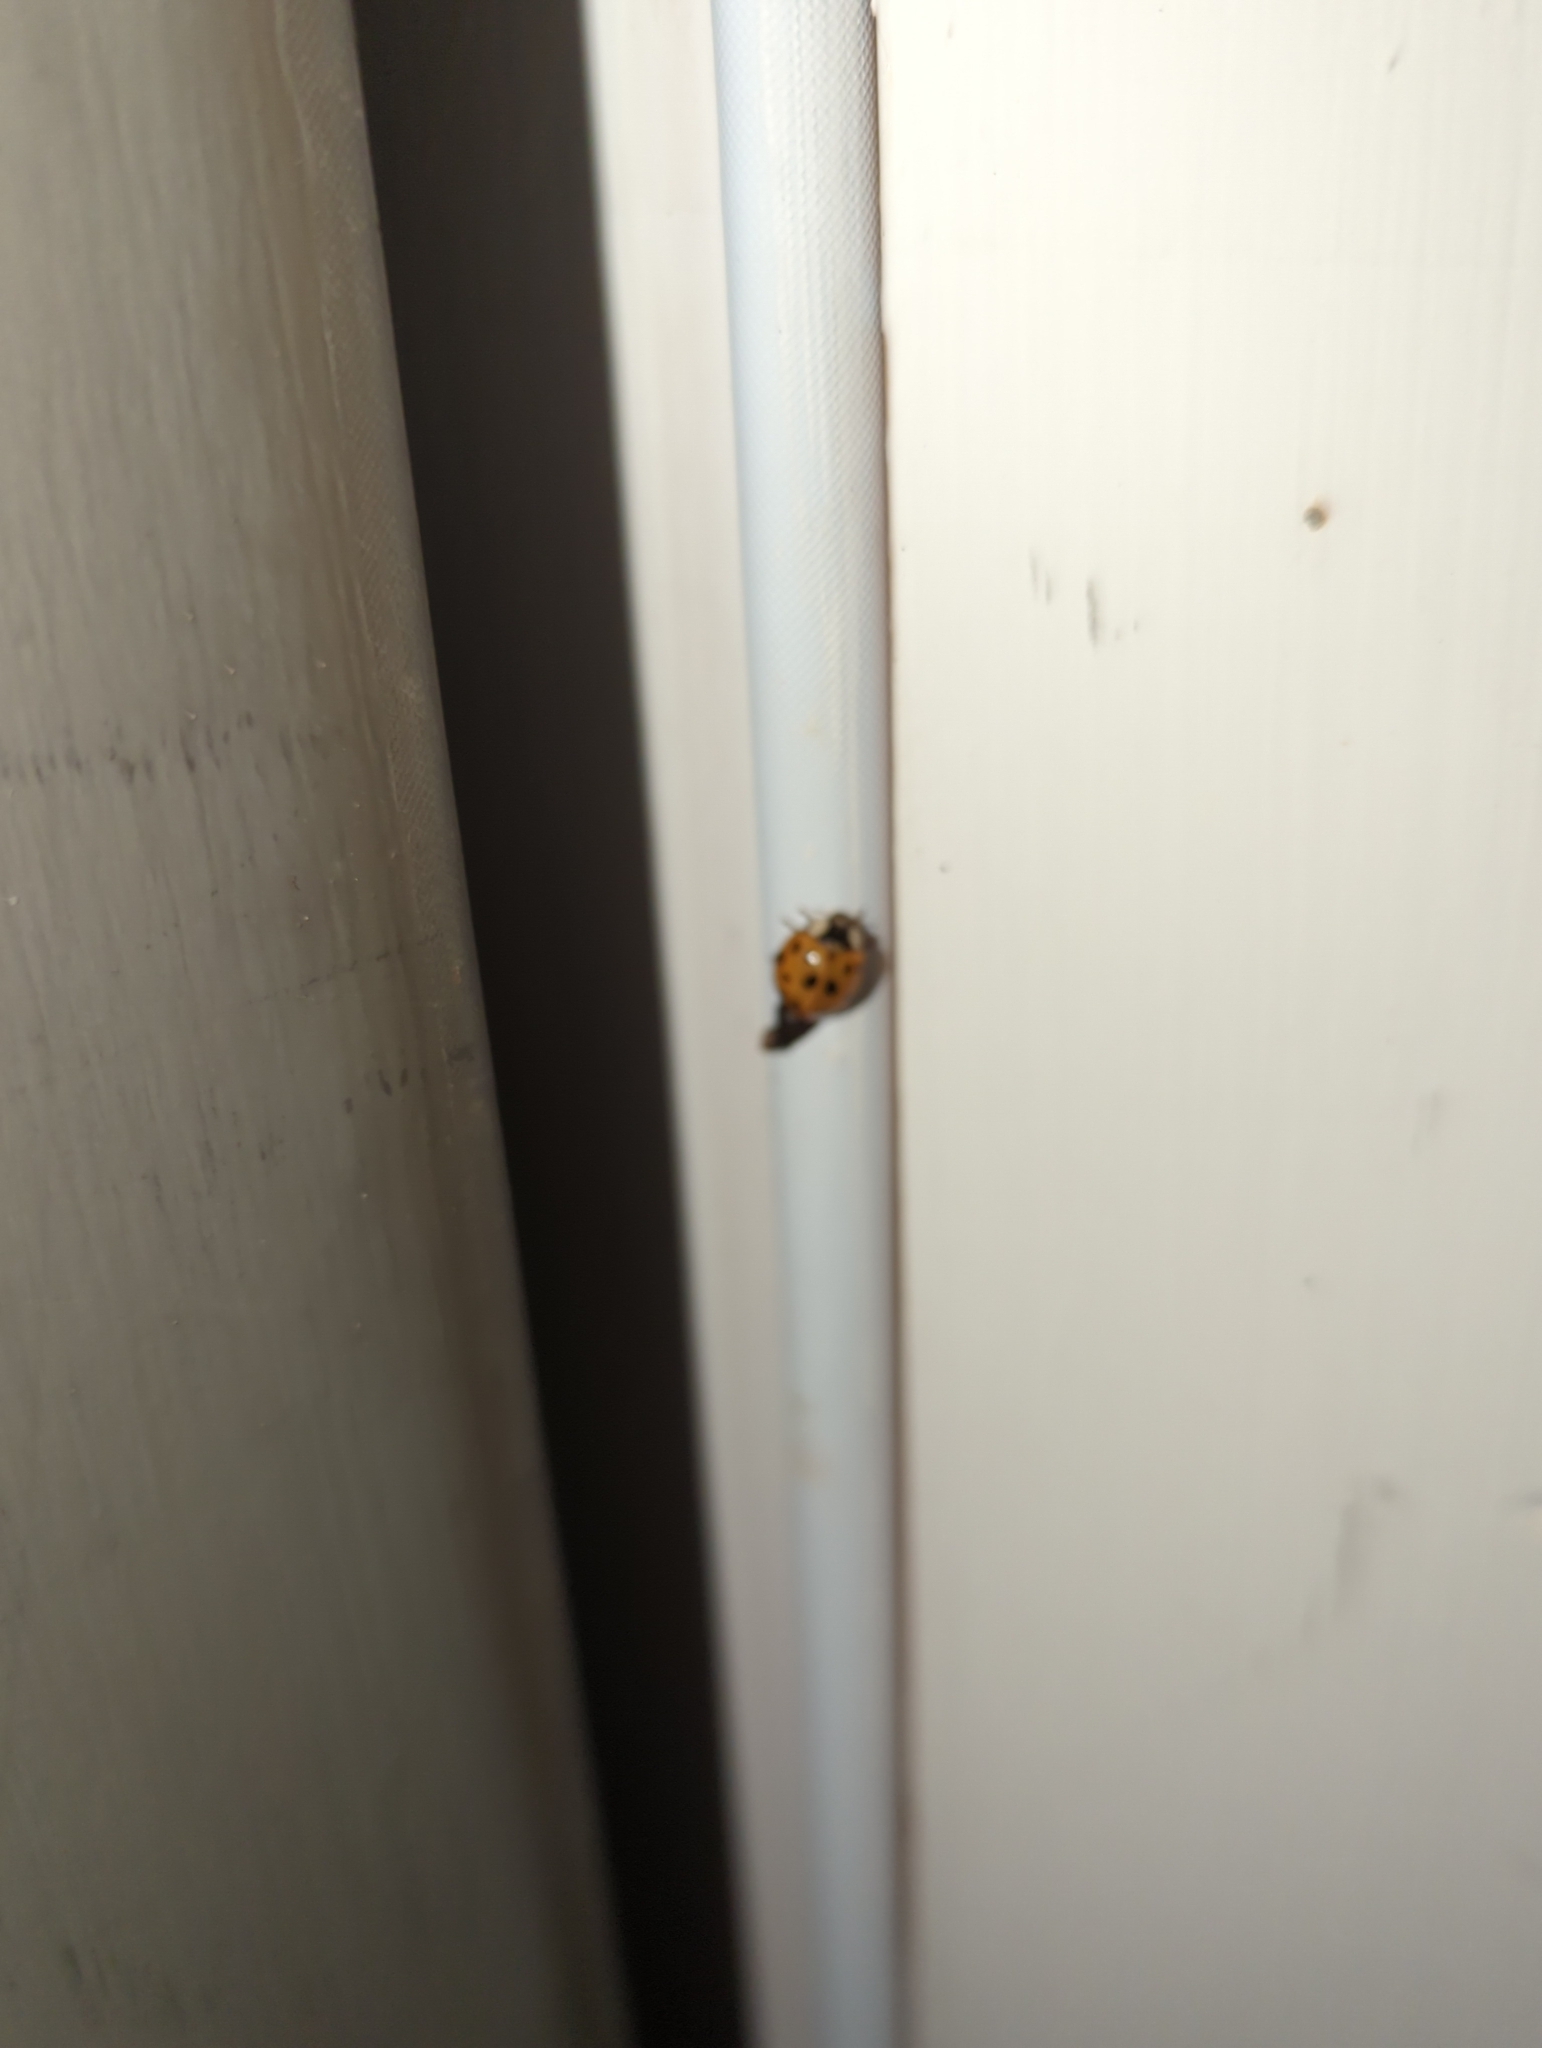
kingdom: Animalia
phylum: Arthropoda
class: Insecta
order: Coleoptera
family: Coccinellidae
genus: Harmonia
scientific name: Harmonia axyridis
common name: Harlequin ladybird
